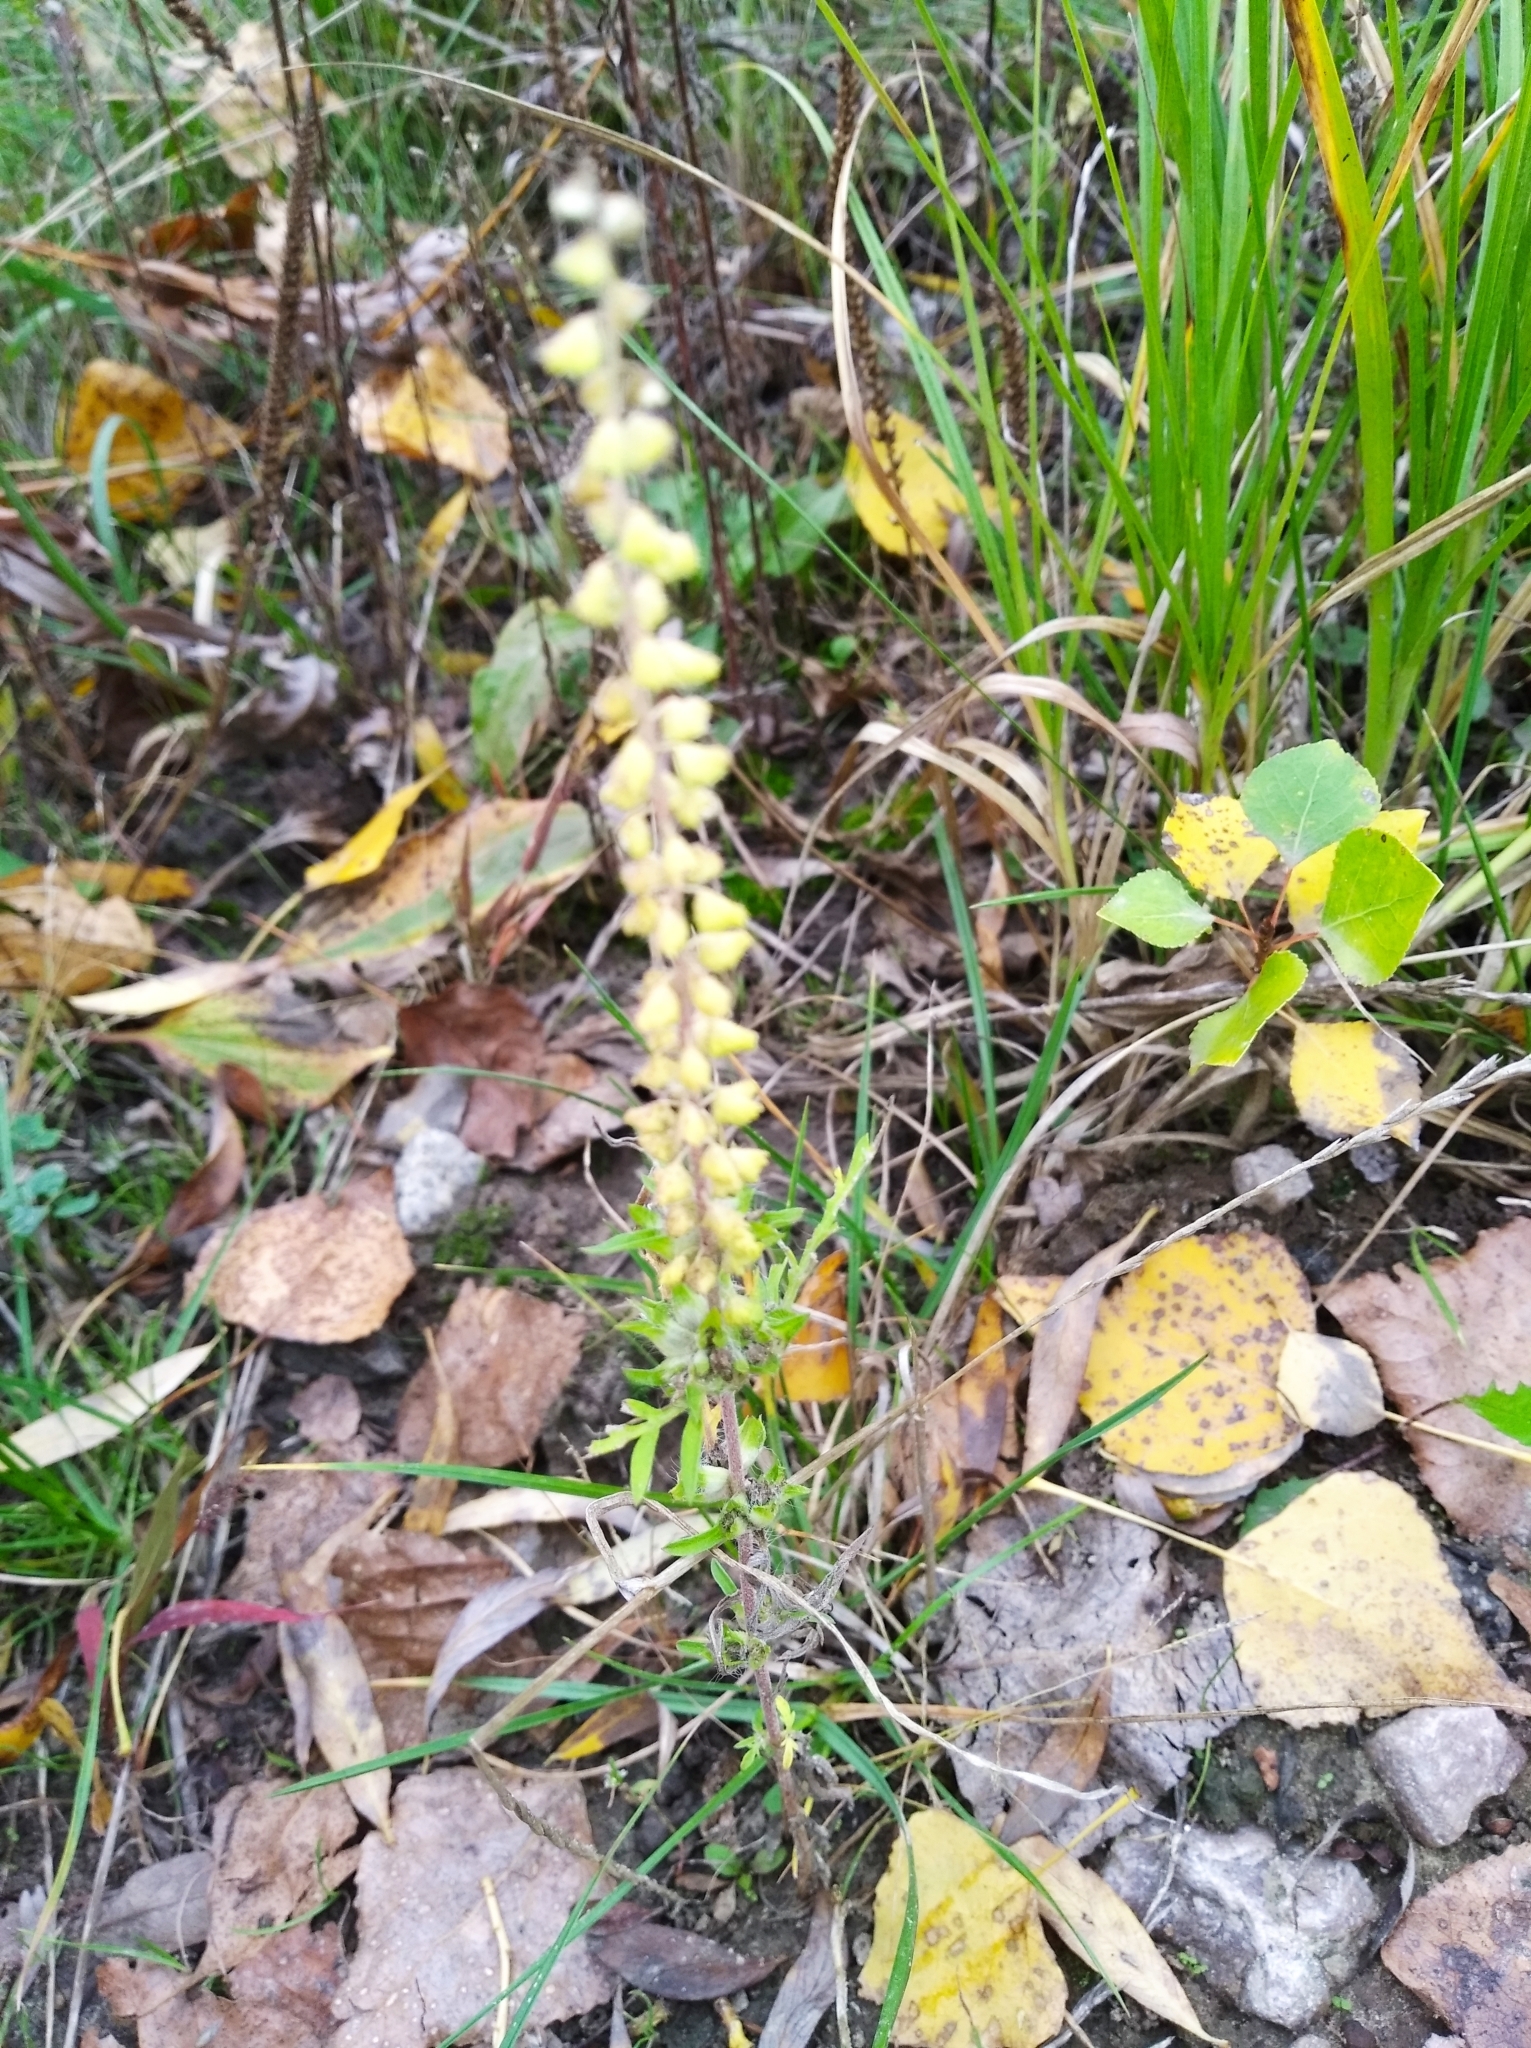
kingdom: Plantae
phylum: Tracheophyta
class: Magnoliopsida
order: Asterales
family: Asteraceae
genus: Ambrosia
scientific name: Ambrosia artemisiifolia
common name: Annual ragweed
